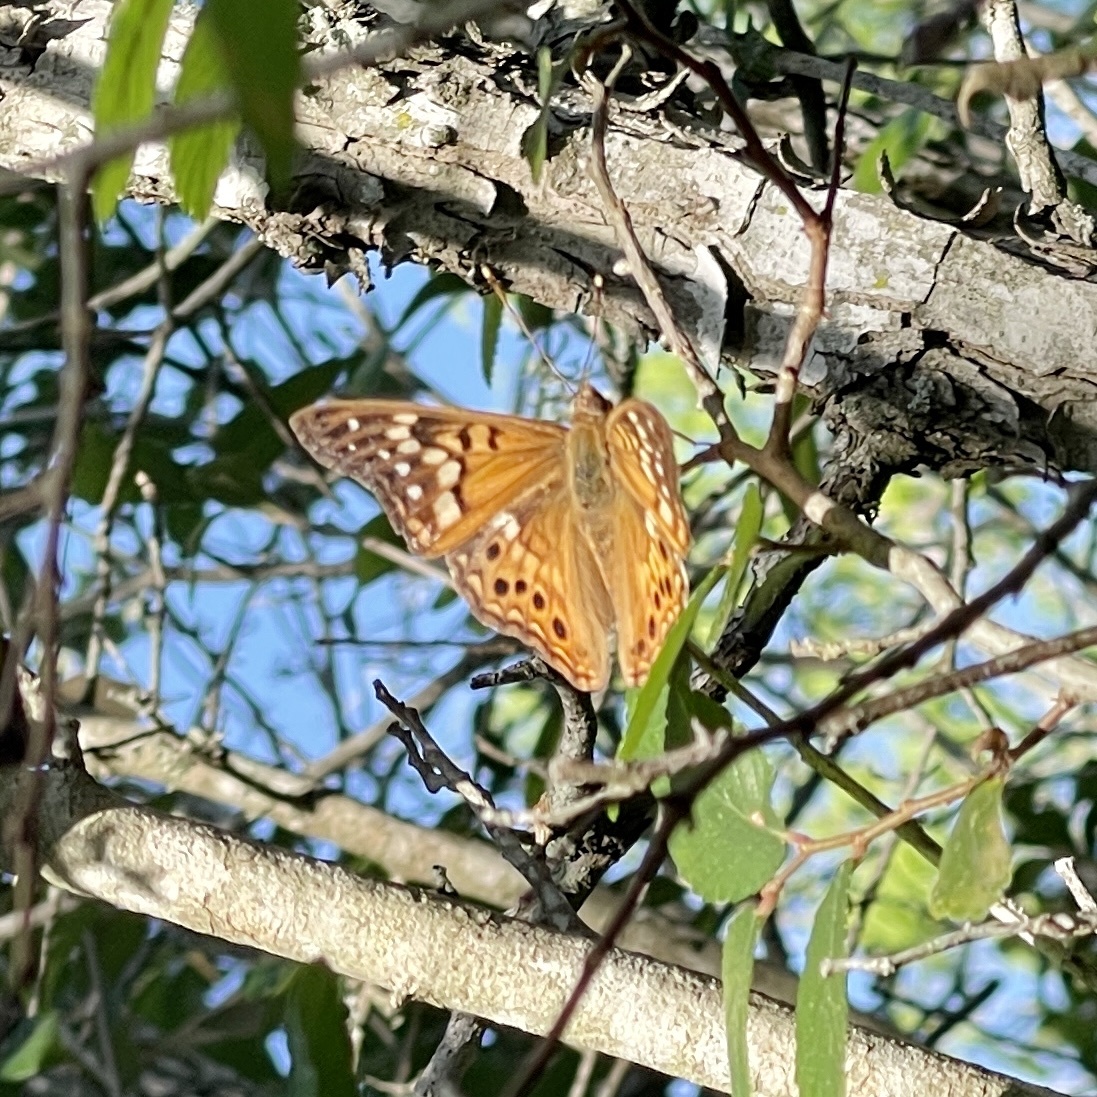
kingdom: Animalia
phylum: Arthropoda
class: Insecta
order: Lepidoptera
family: Nymphalidae
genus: Asterocampa
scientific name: Asterocampa clyton
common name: Tawny emperor
